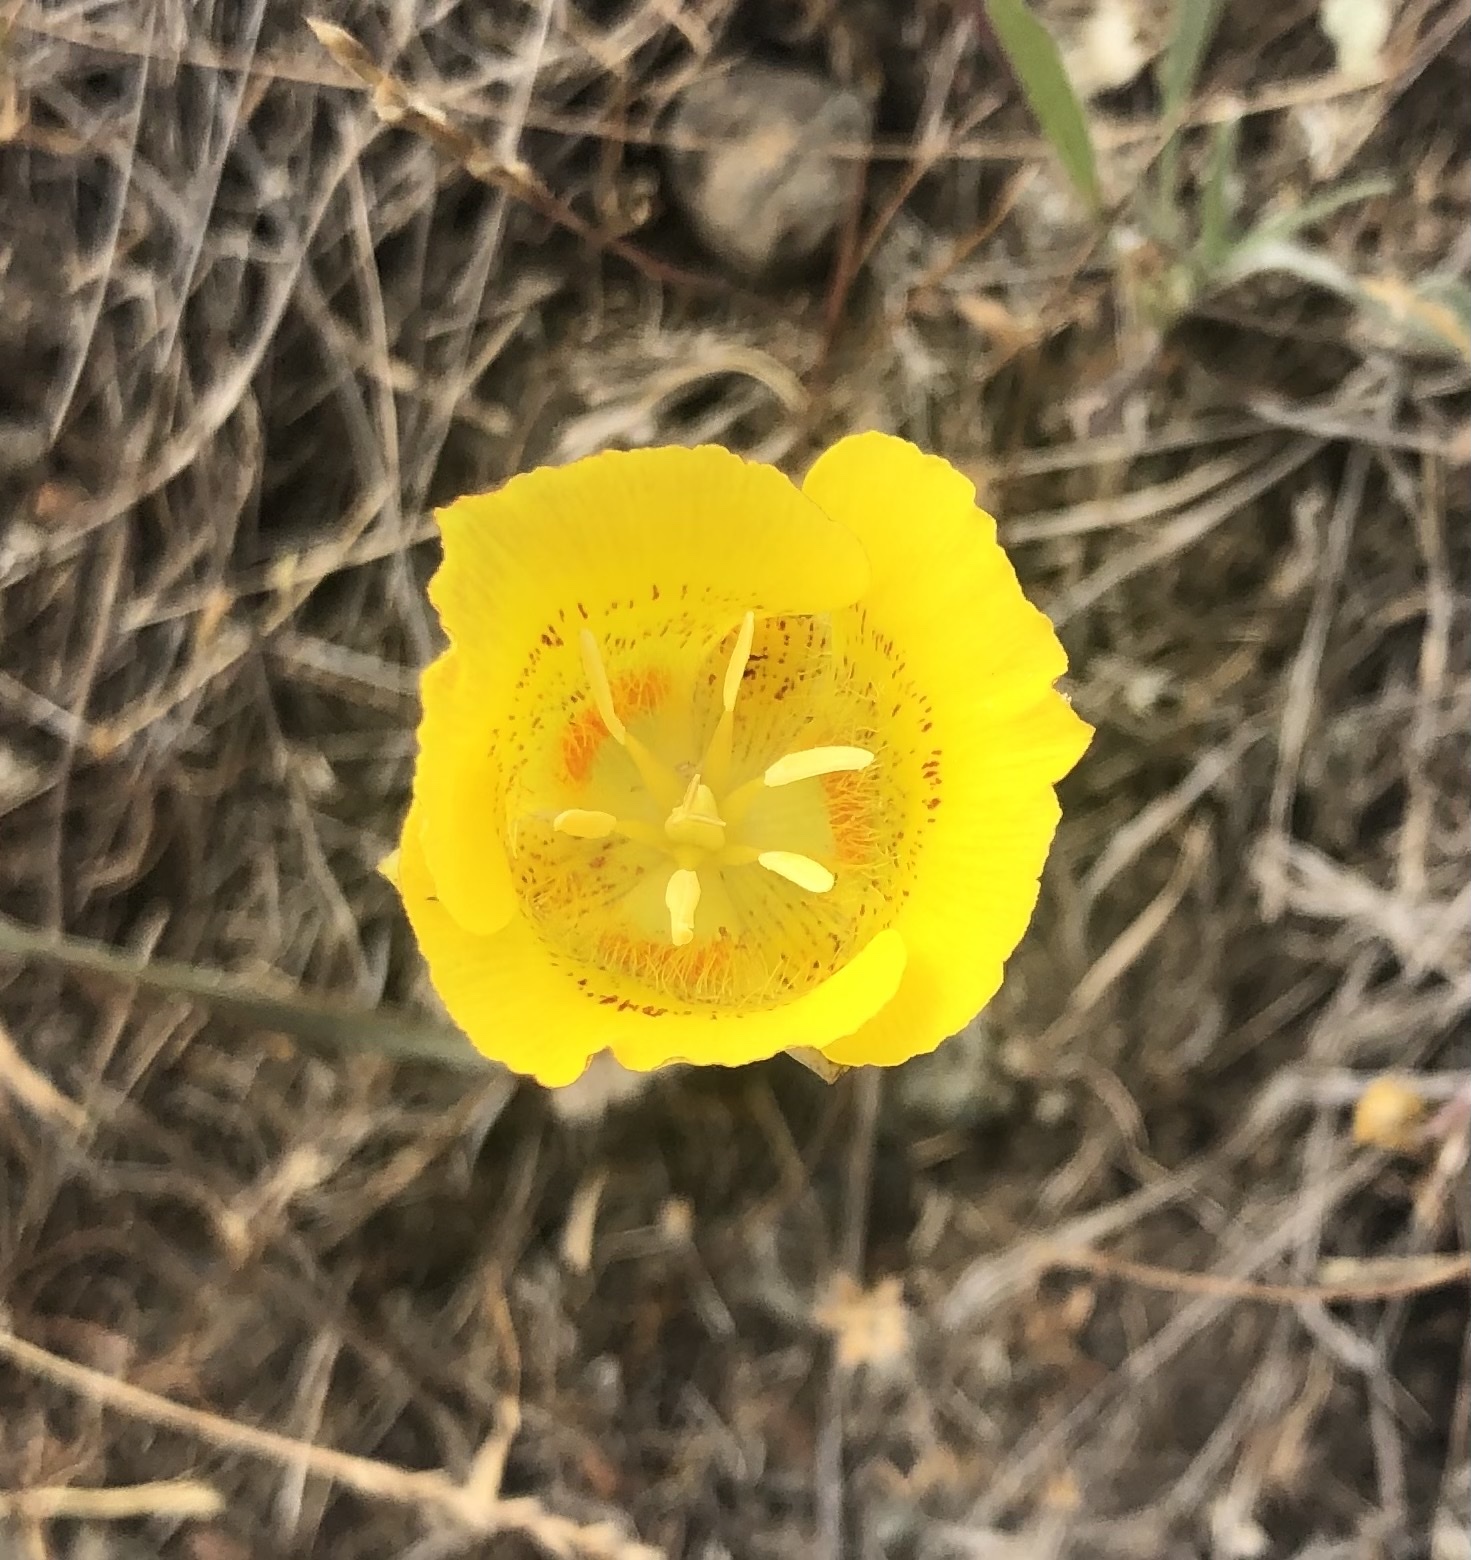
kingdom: Plantae
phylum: Tracheophyta
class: Liliopsida
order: Liliales
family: Liliaceae
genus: Calochortus
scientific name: Calochortus luteus
